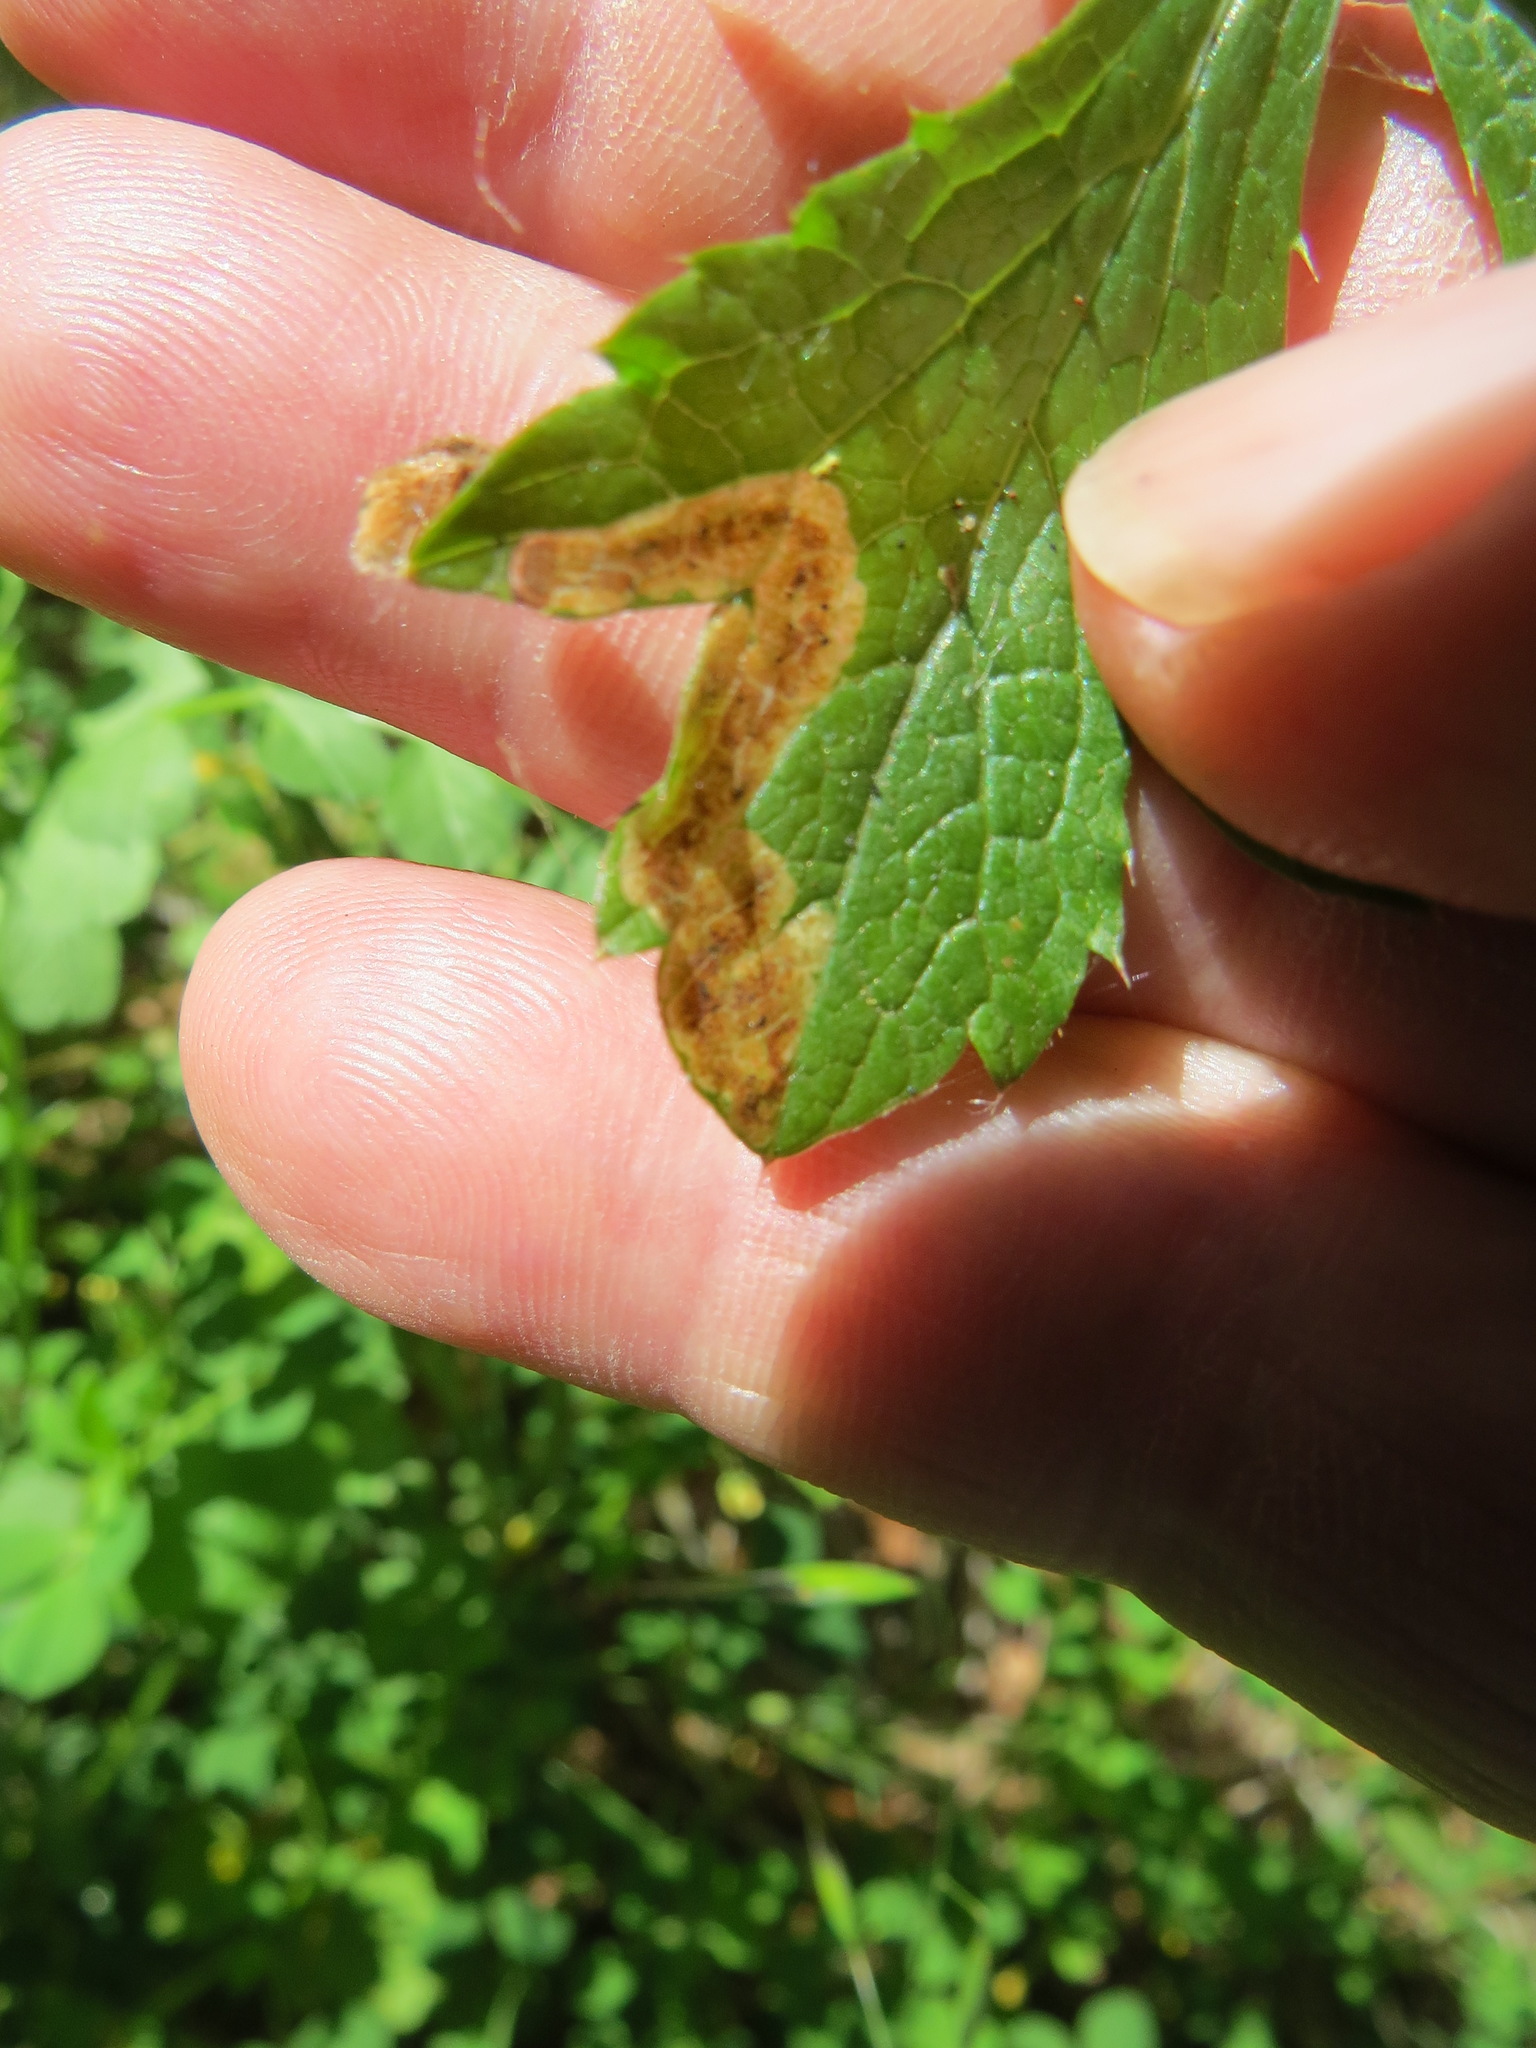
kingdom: Animalia
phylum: Arthropoda
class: Insecta
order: Diptera
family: Agromyzidae
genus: Phytomyza
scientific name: Phytomyza saniculae
